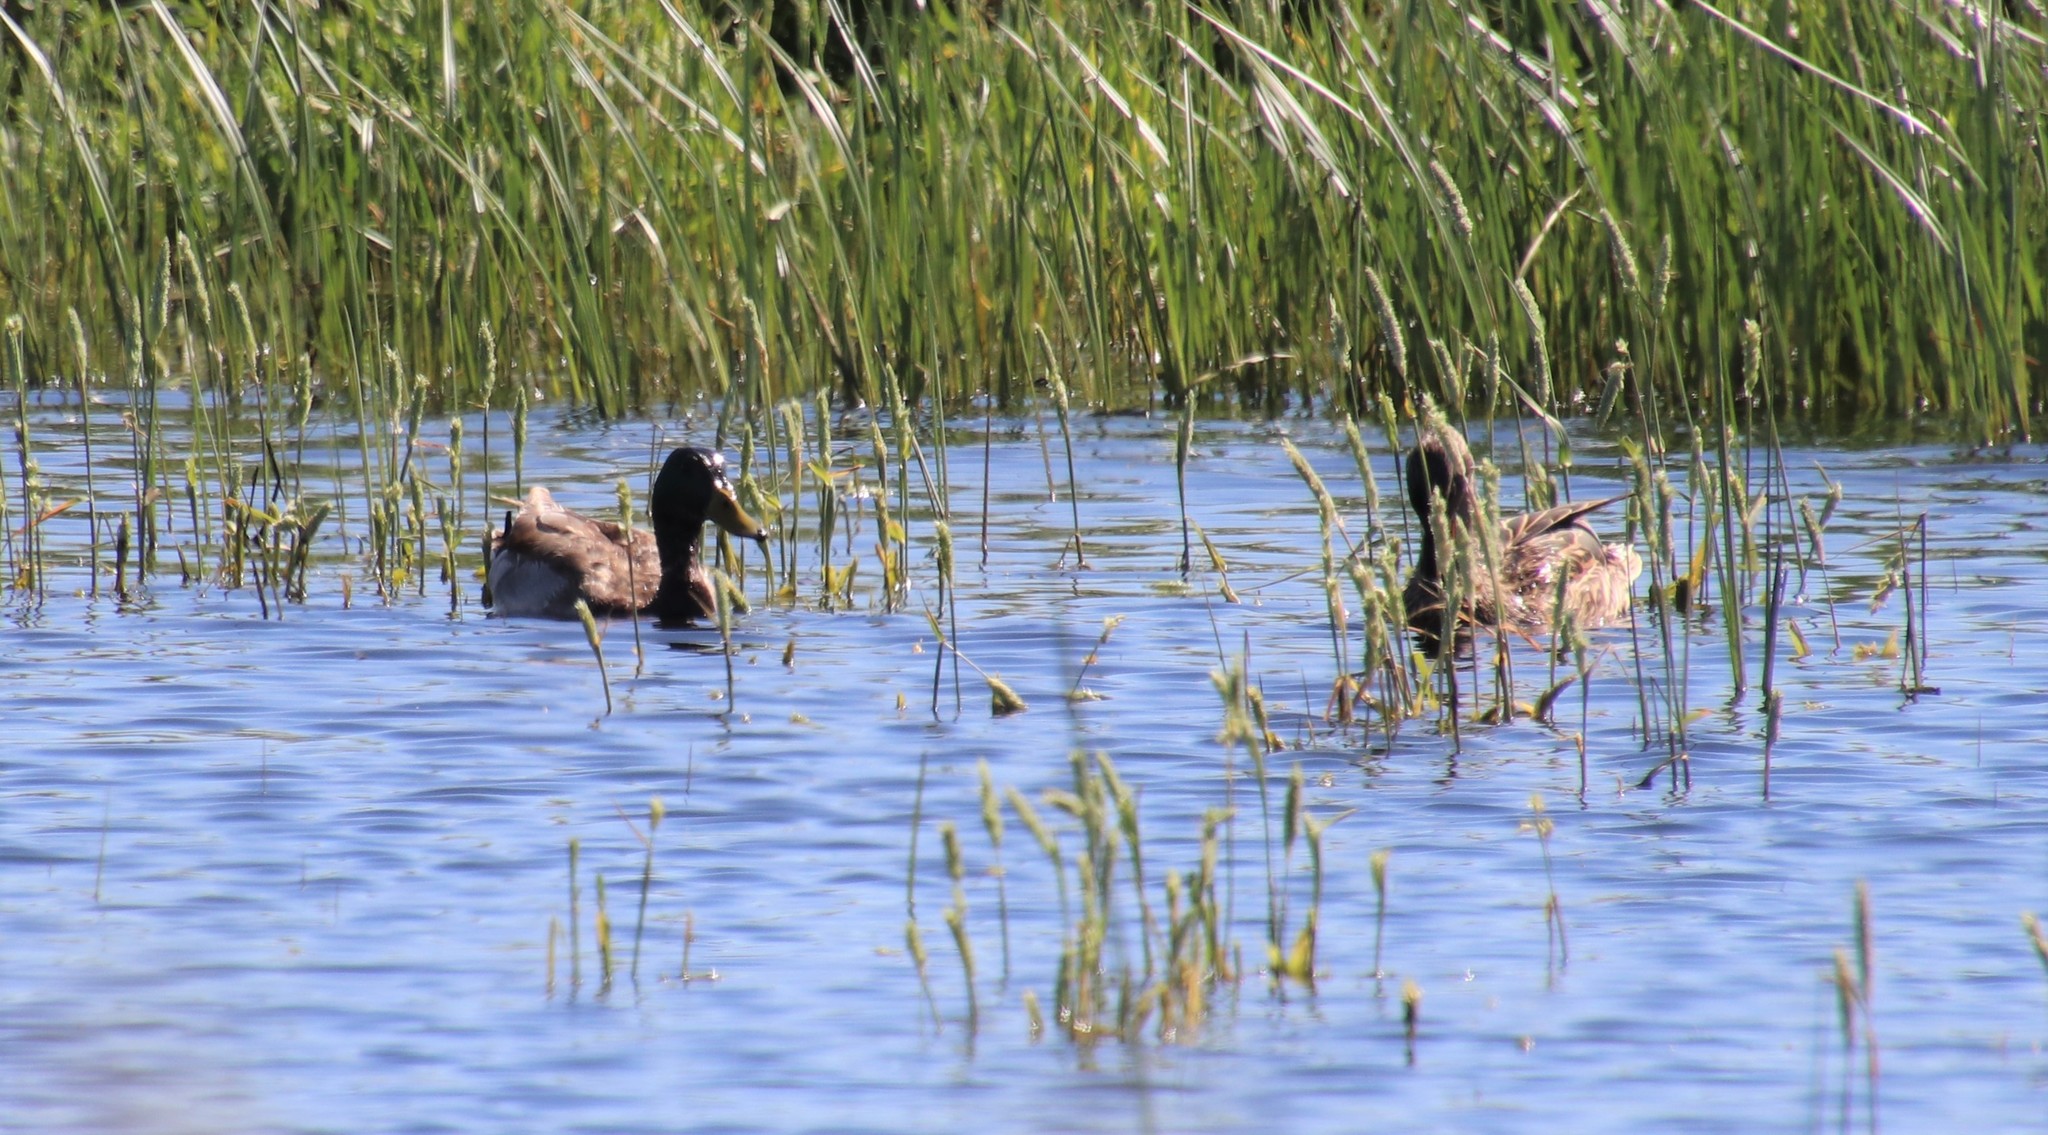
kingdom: Animalia
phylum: Chordata
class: Aves
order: Anseriformes
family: Anatidae
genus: Anas
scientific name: Anas platyrhynchos
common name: Mallard
